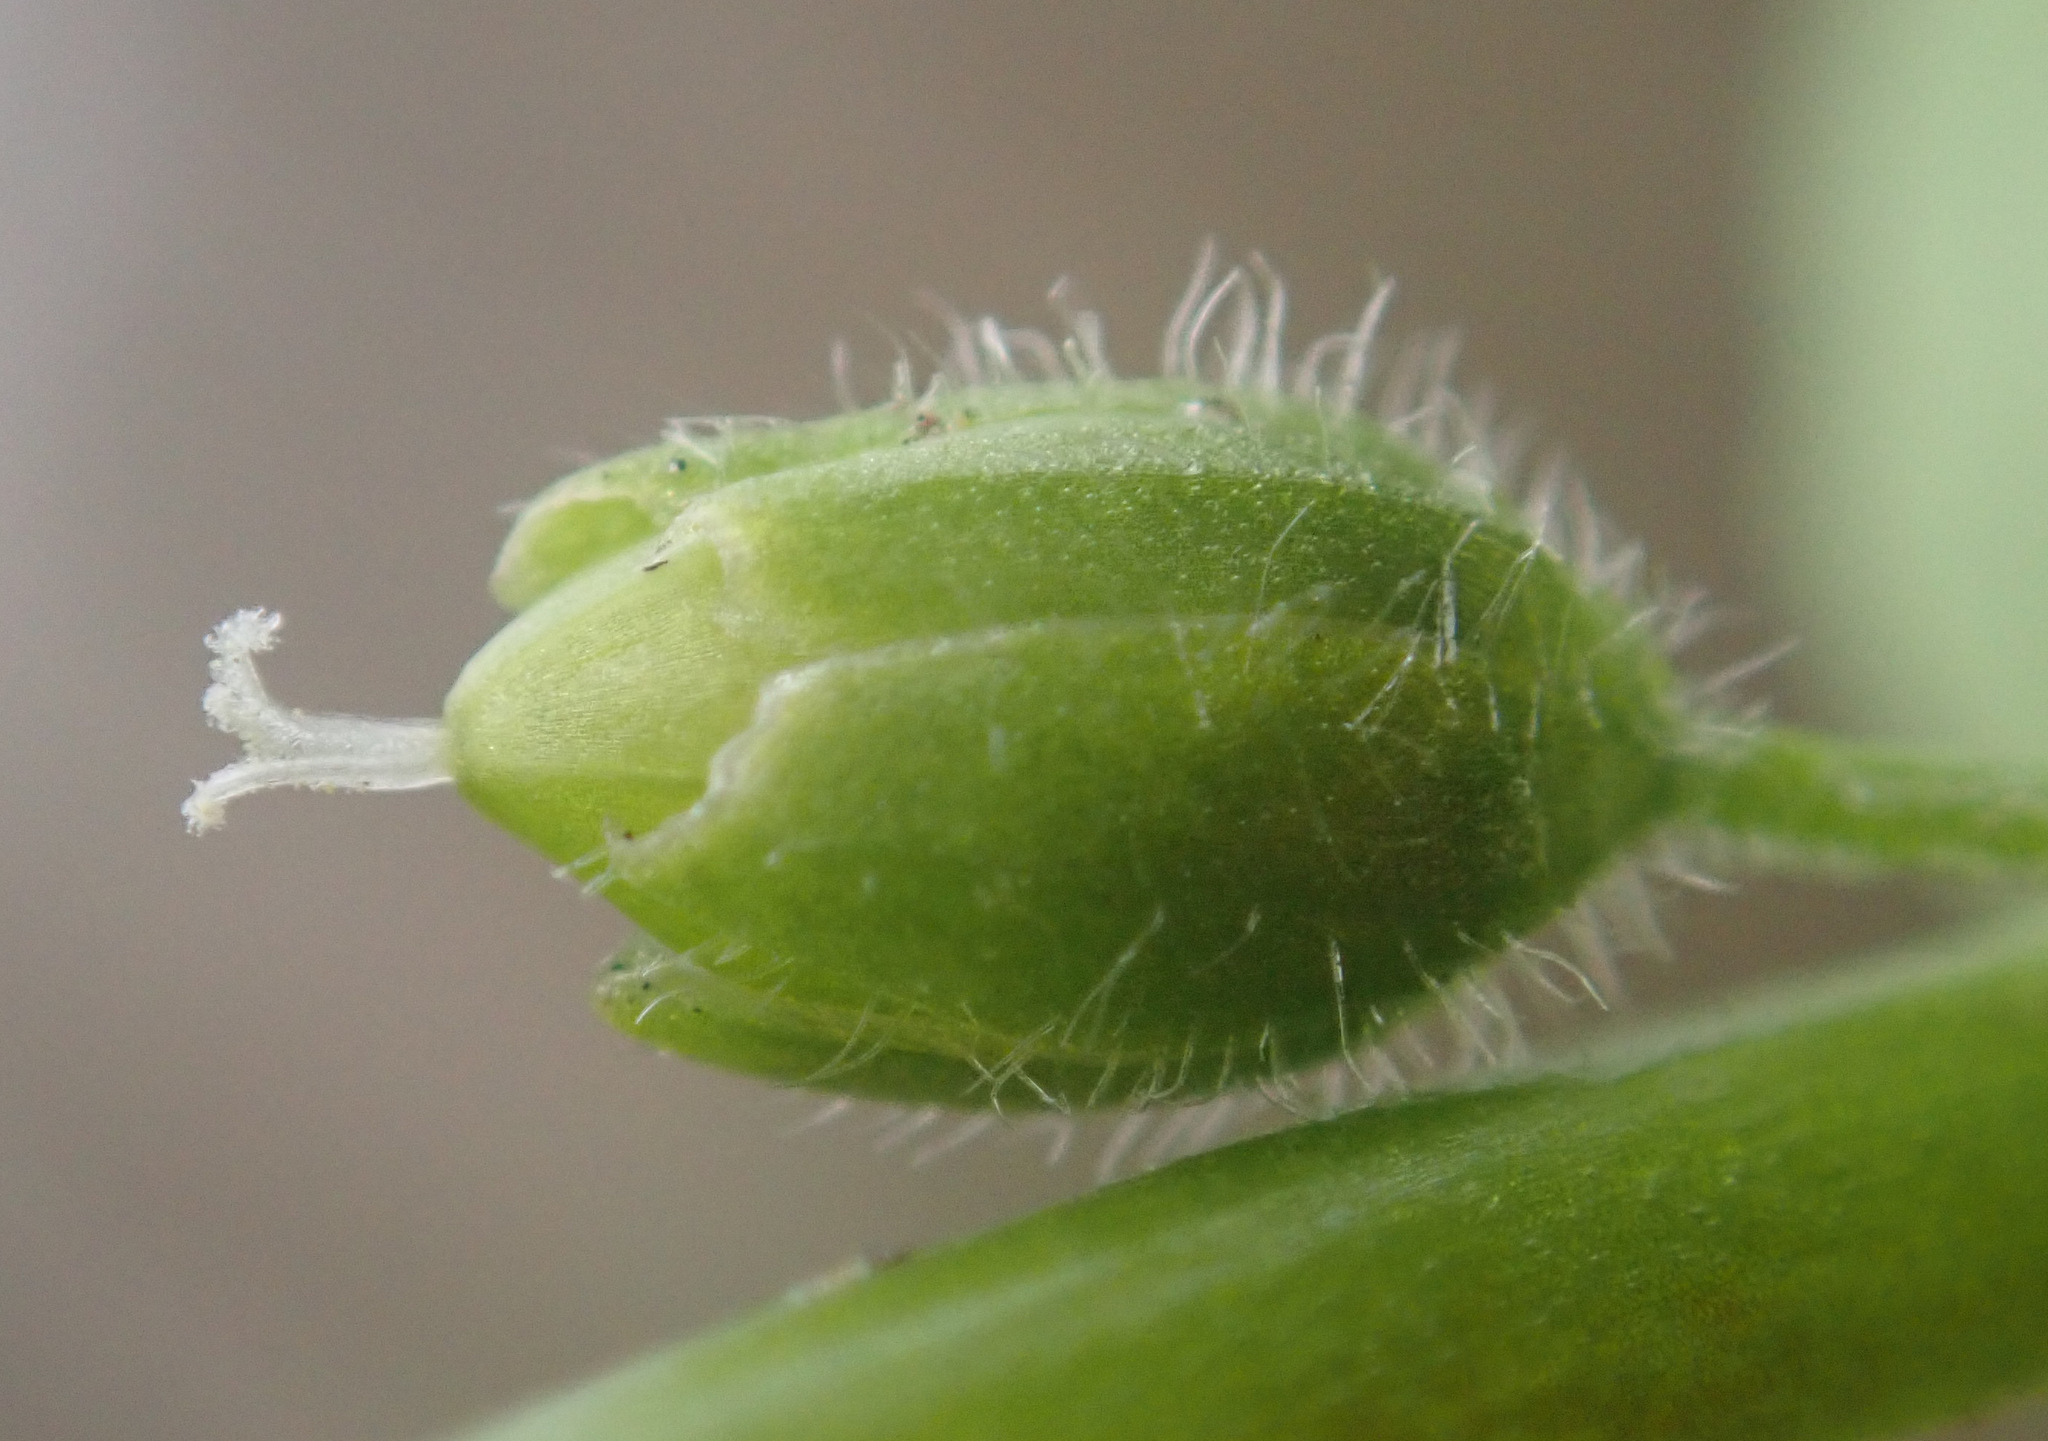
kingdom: Plantae
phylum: Tracheophyta
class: Magnoliopsida
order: Caryophyllales
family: Caryophyllaceae
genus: Stellaria
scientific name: Stellaria ruderalis
